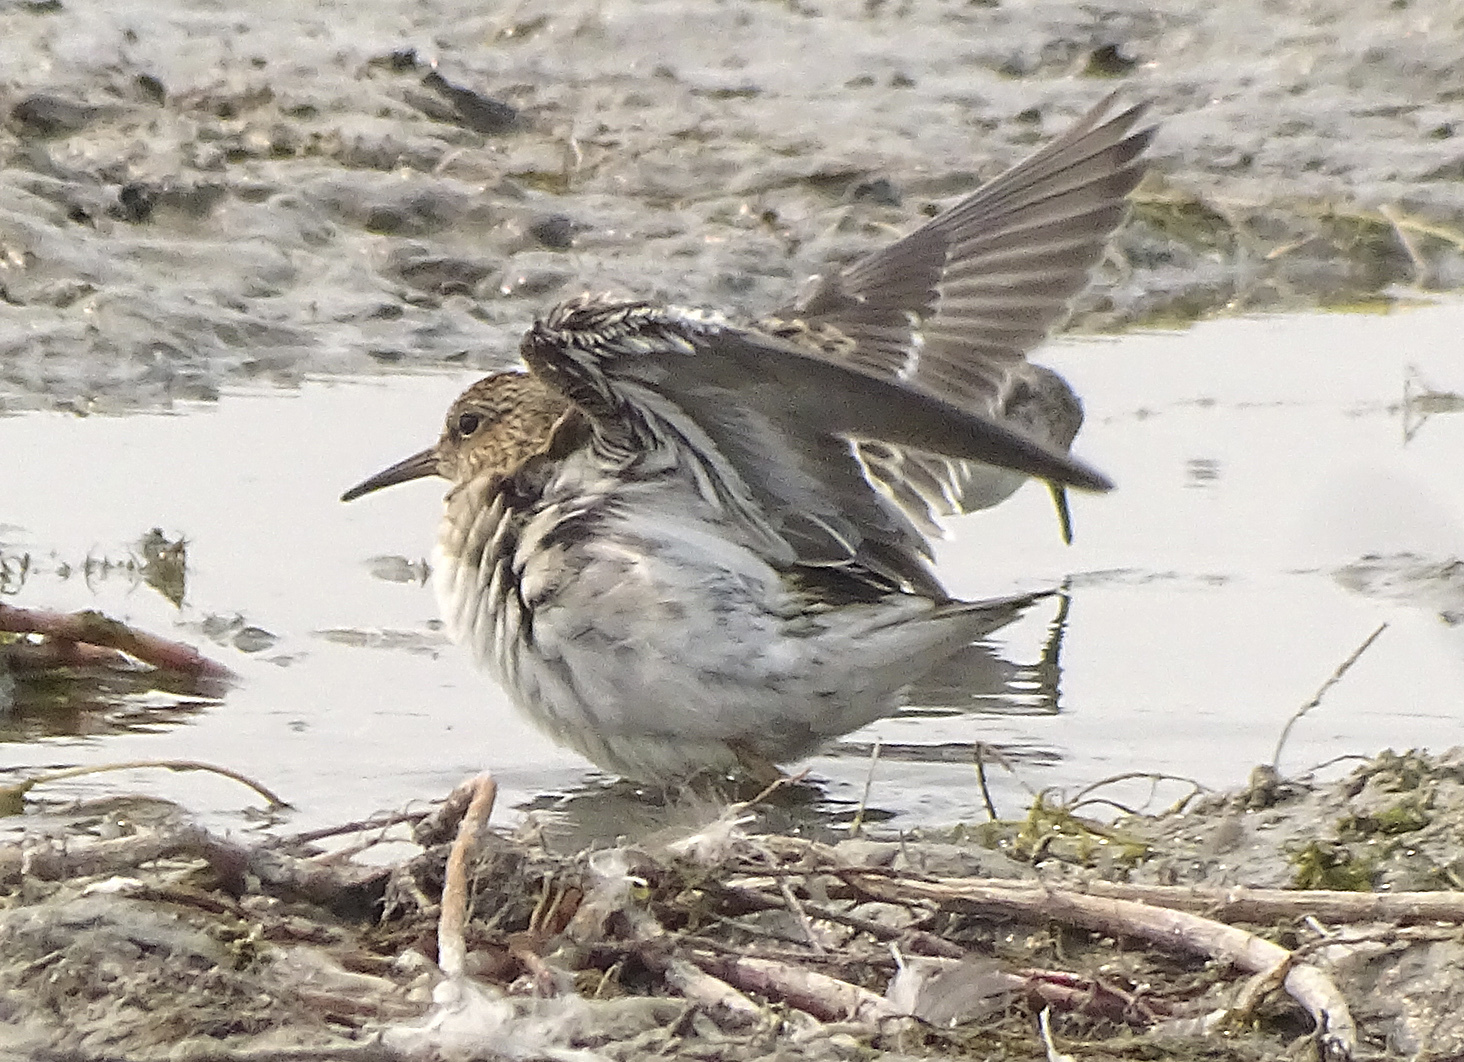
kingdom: Animalia
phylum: Chordata
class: Aves
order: Charadriiformes
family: Scolopacidae
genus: Calidris
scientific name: Calidris melanotos
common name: Pectoral sandpiper
